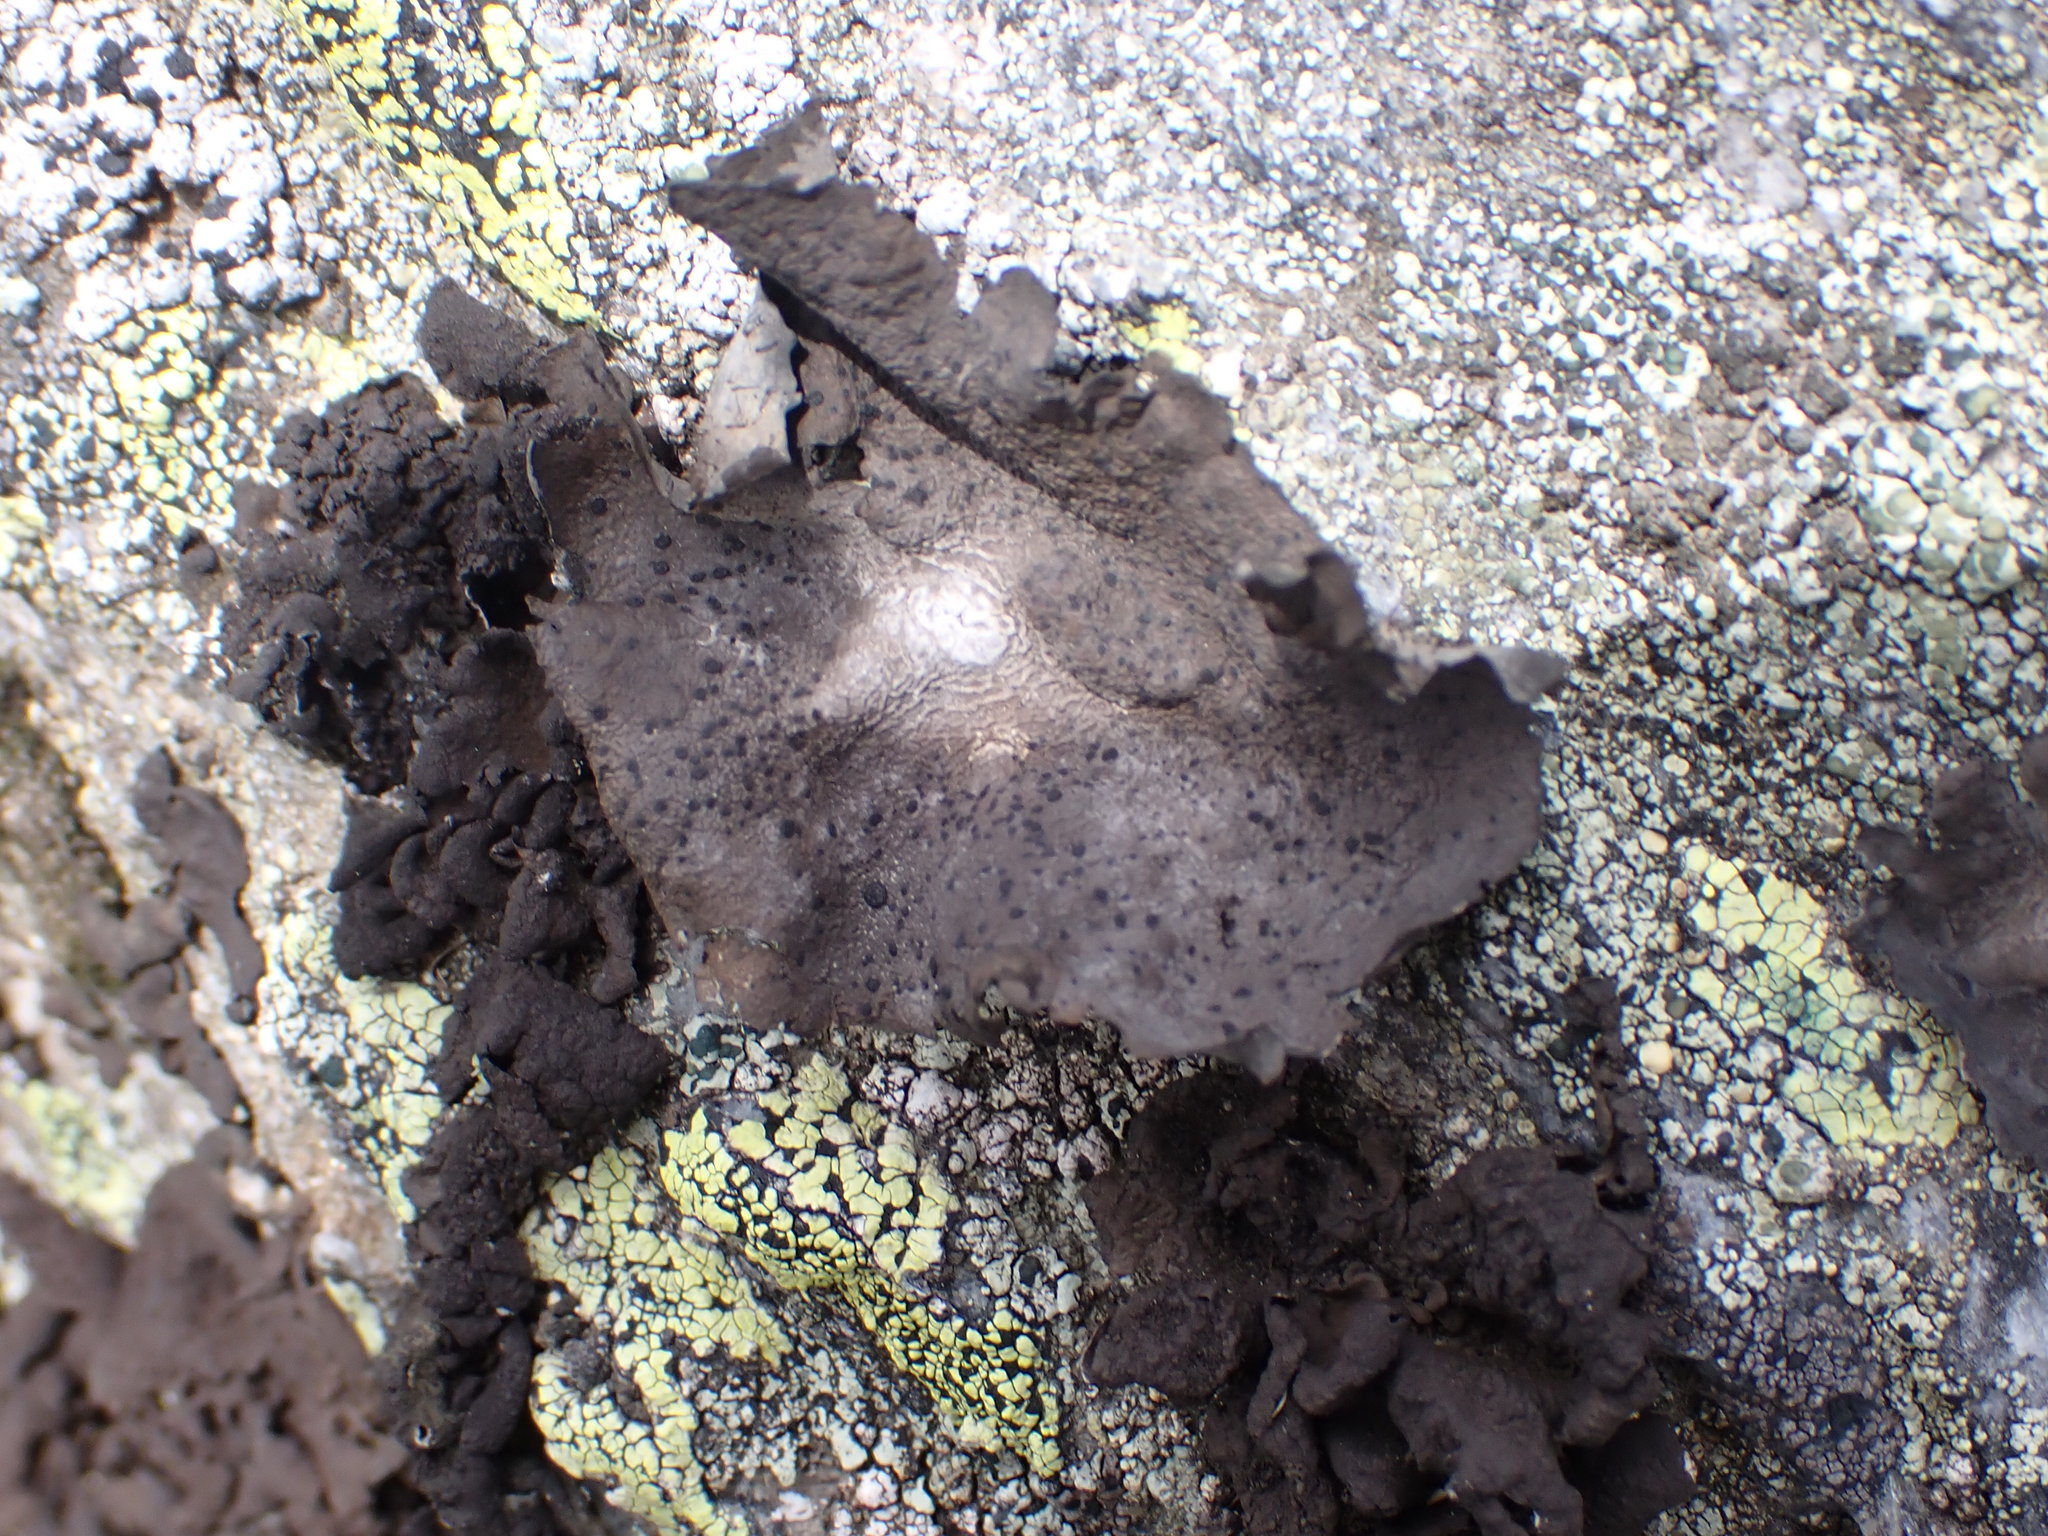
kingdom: Fungi
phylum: Ascomycota
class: Lecanoromycetes
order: Umbilicariales
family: Umbilicariaceae
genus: Umbilicaria
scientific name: Umbilicaria muhlenbergii
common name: Lesser rocktripe
